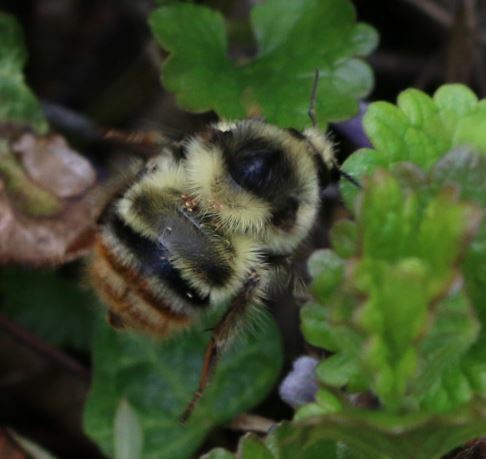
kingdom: Animalia
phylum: Arthropoda
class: Insecta
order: Hymenoptera
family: Apidae
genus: Bombus
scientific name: Bombus sylvarum
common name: Shrill carder bee
